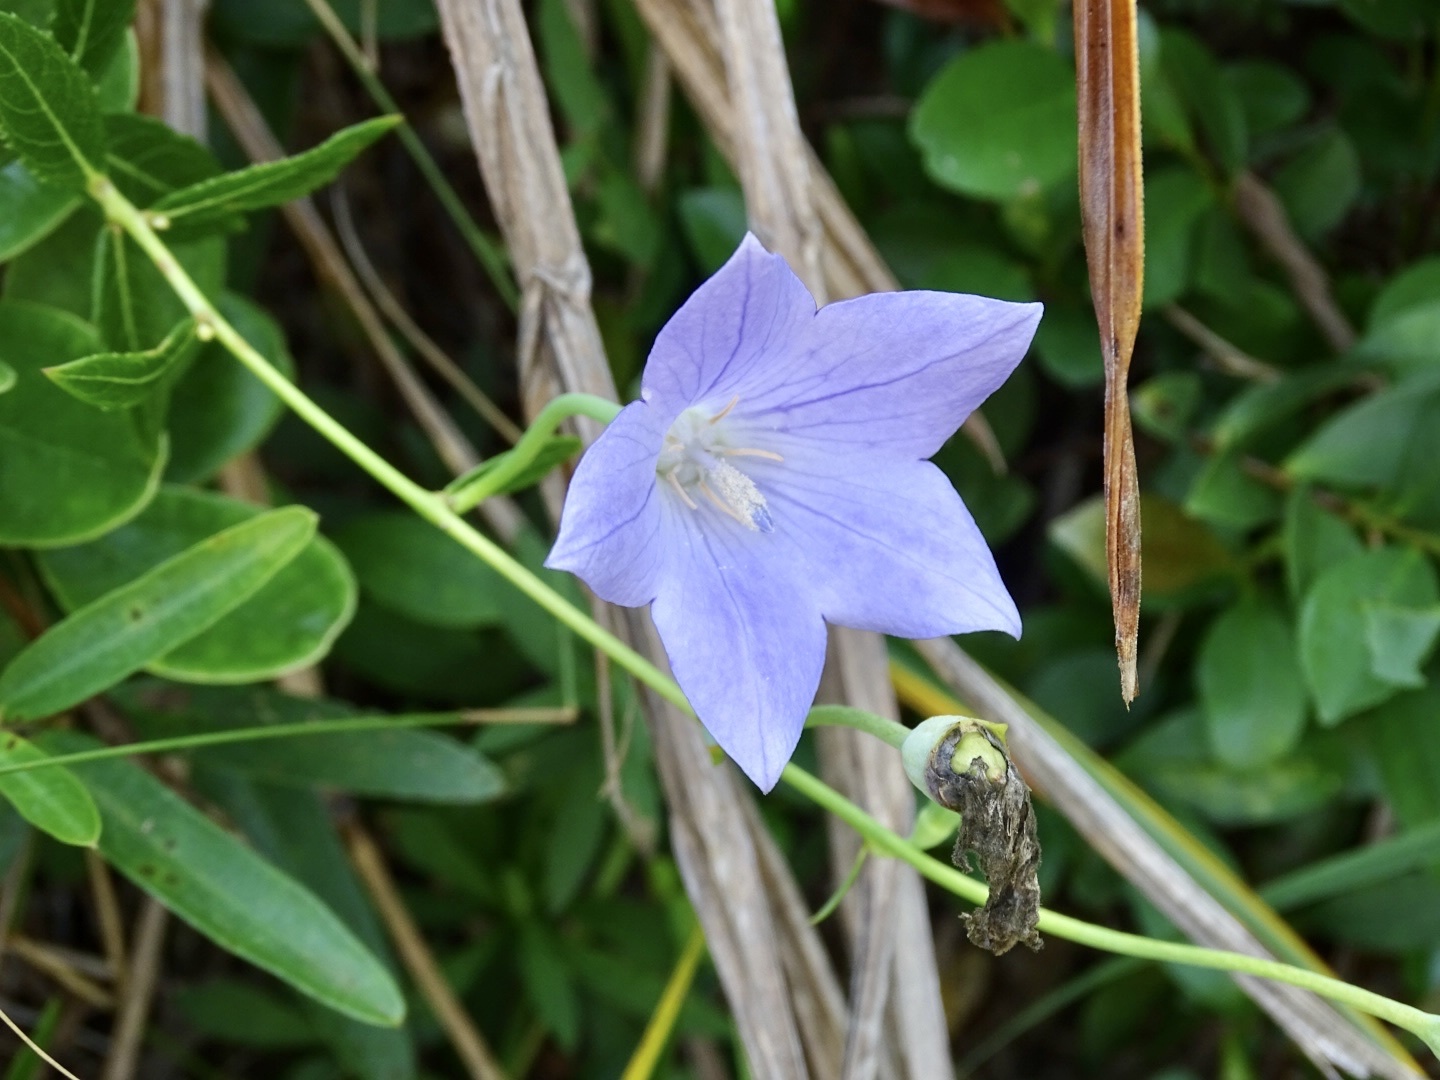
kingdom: Plantae
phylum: Tracheophyta
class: Magnoliopsida
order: Asterales
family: Campanulaceae
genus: Platycodon
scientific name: Platycodon grandiflorus
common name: Balloon-flower
